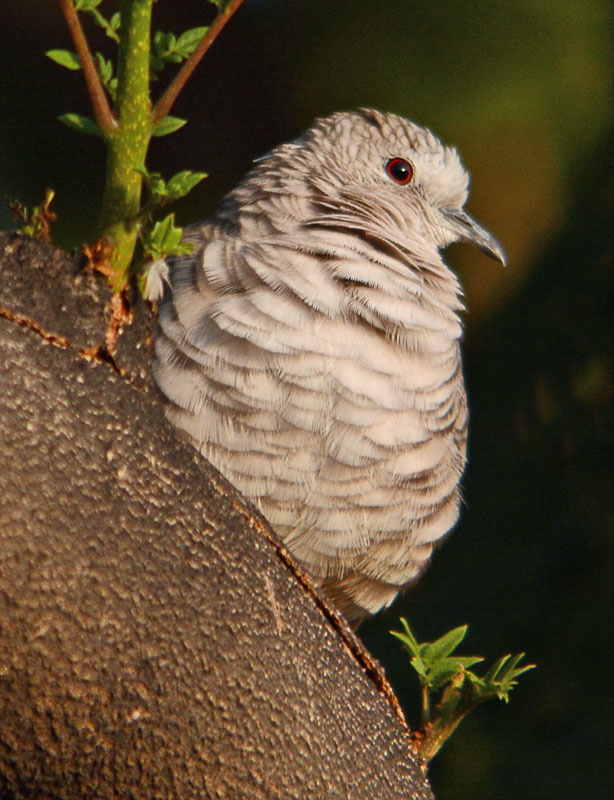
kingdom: Animalia
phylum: Chordata
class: Aves
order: Columbiformes
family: Columbidae
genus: Columbina
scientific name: Columbina inca
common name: Inca dove
